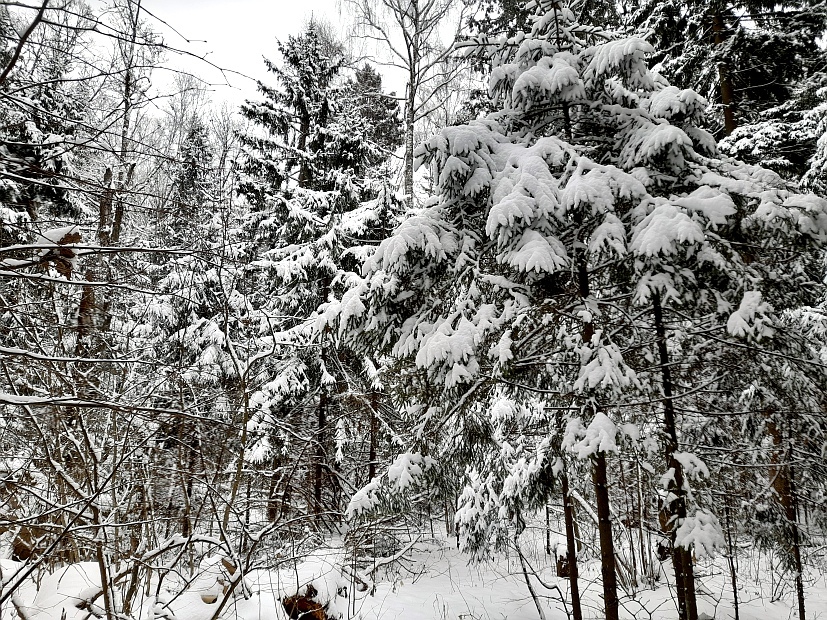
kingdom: Plantae
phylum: Tracheophyta
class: Pinopsida
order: Pinales
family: Pinaceae
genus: Picea
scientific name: Picea abies
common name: Norway spruce
